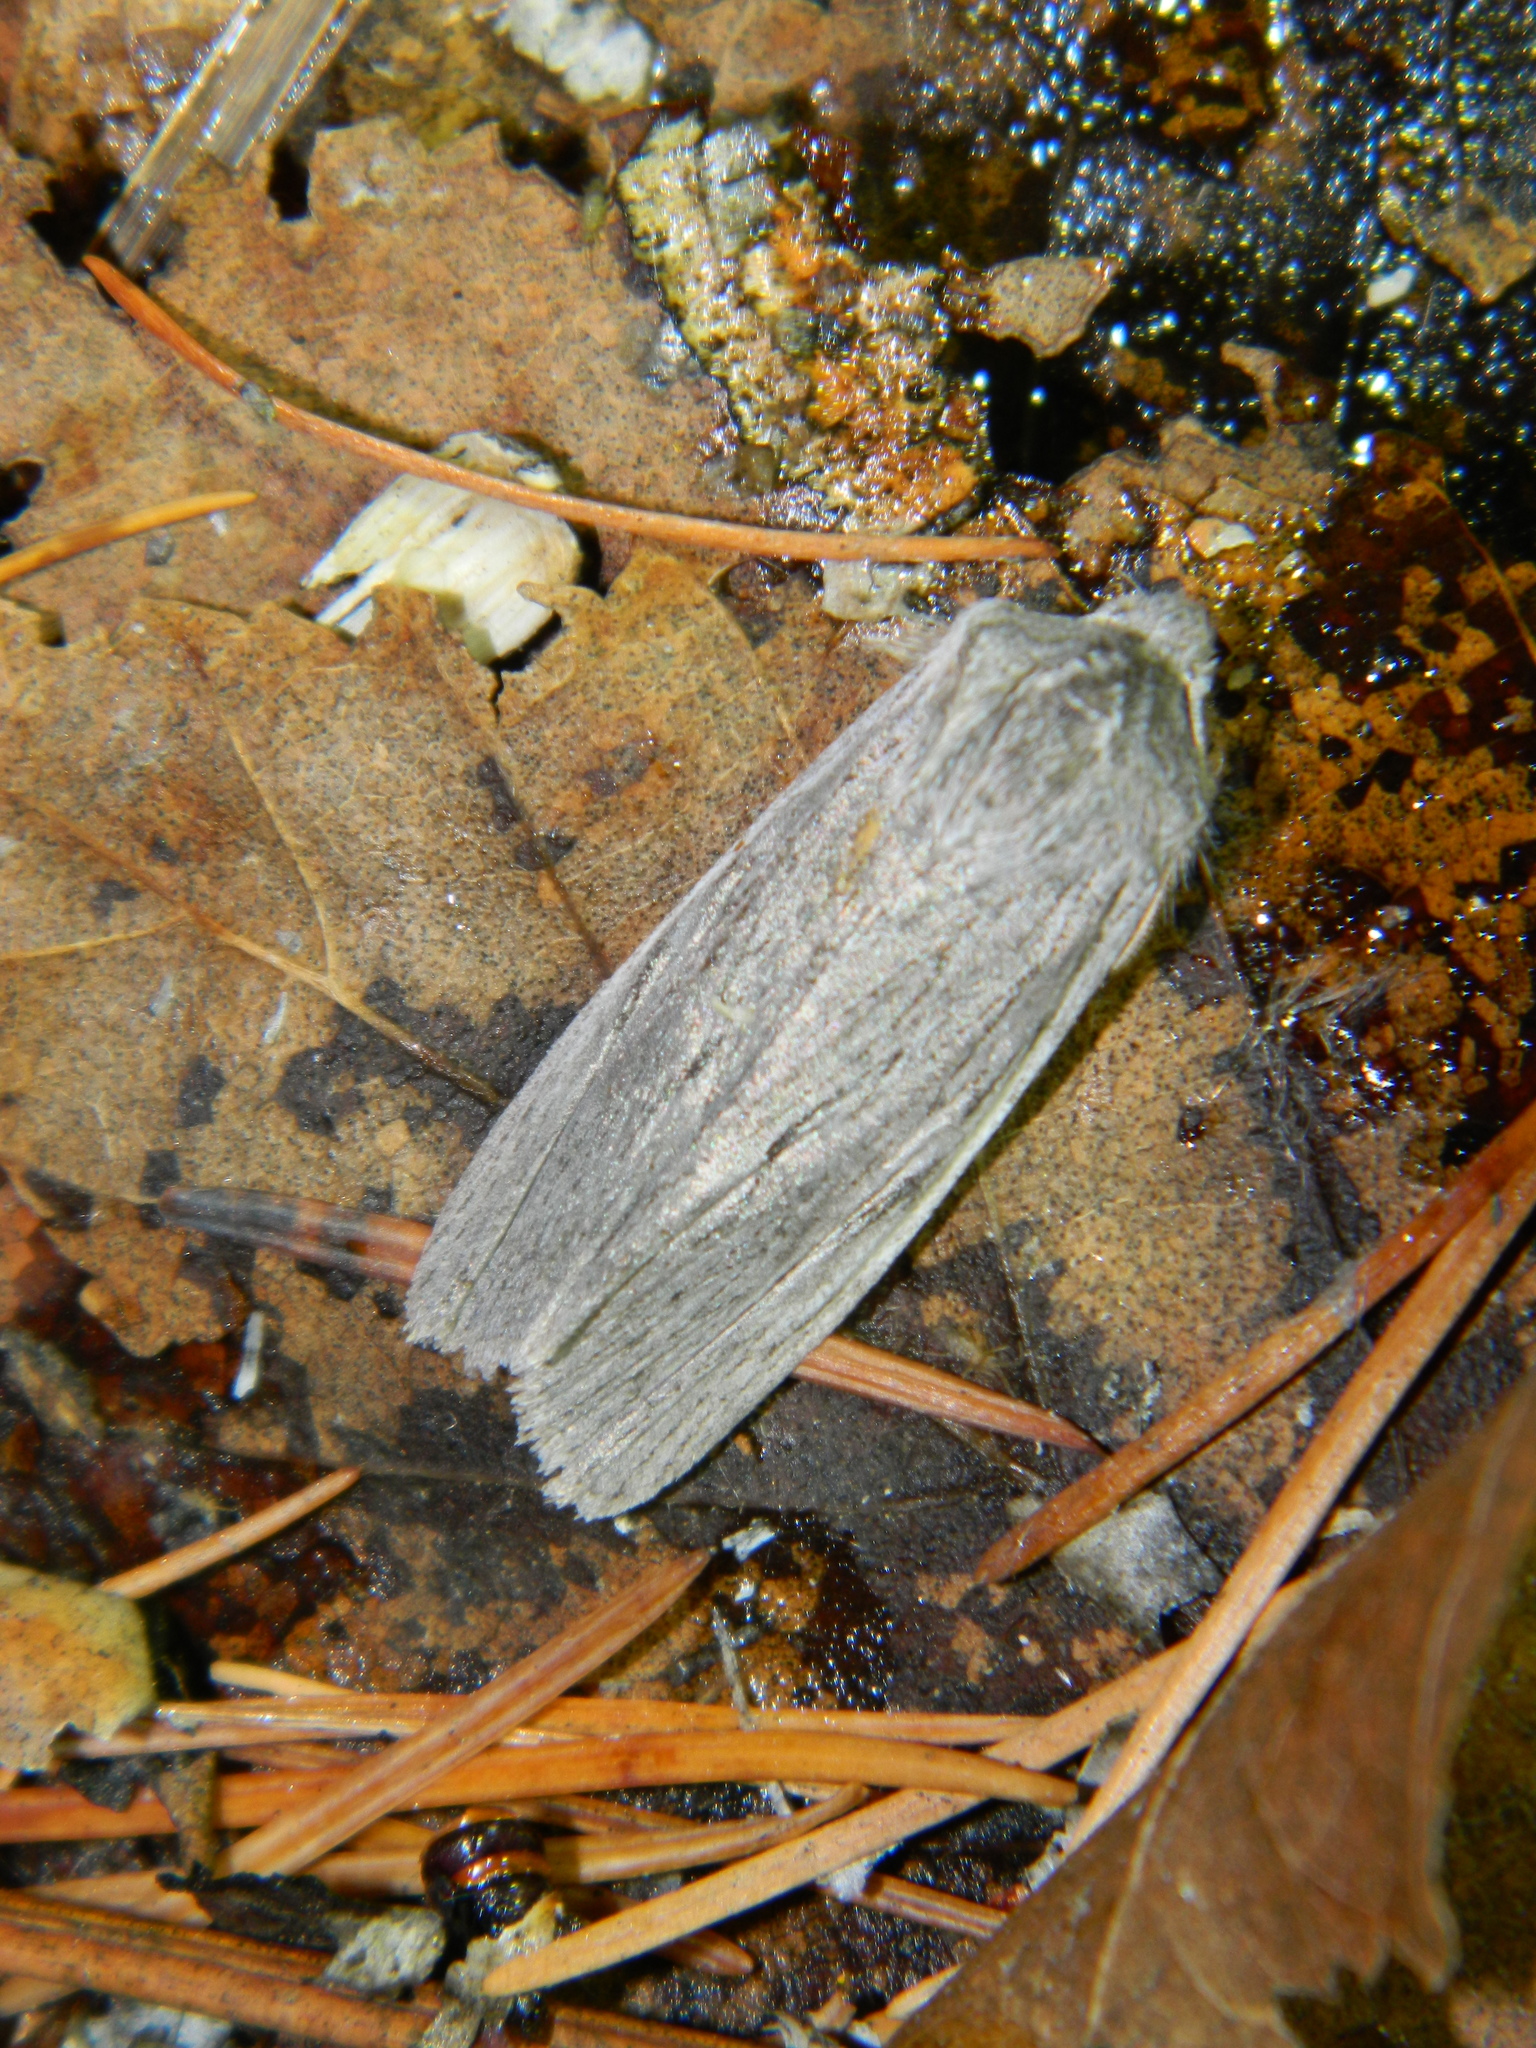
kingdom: Animalia
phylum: Arthropoda
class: Insecta
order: Lepidoptera
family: Noctuidae
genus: Lithophane
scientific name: Lithophane fagina
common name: Hoary pinion moth
